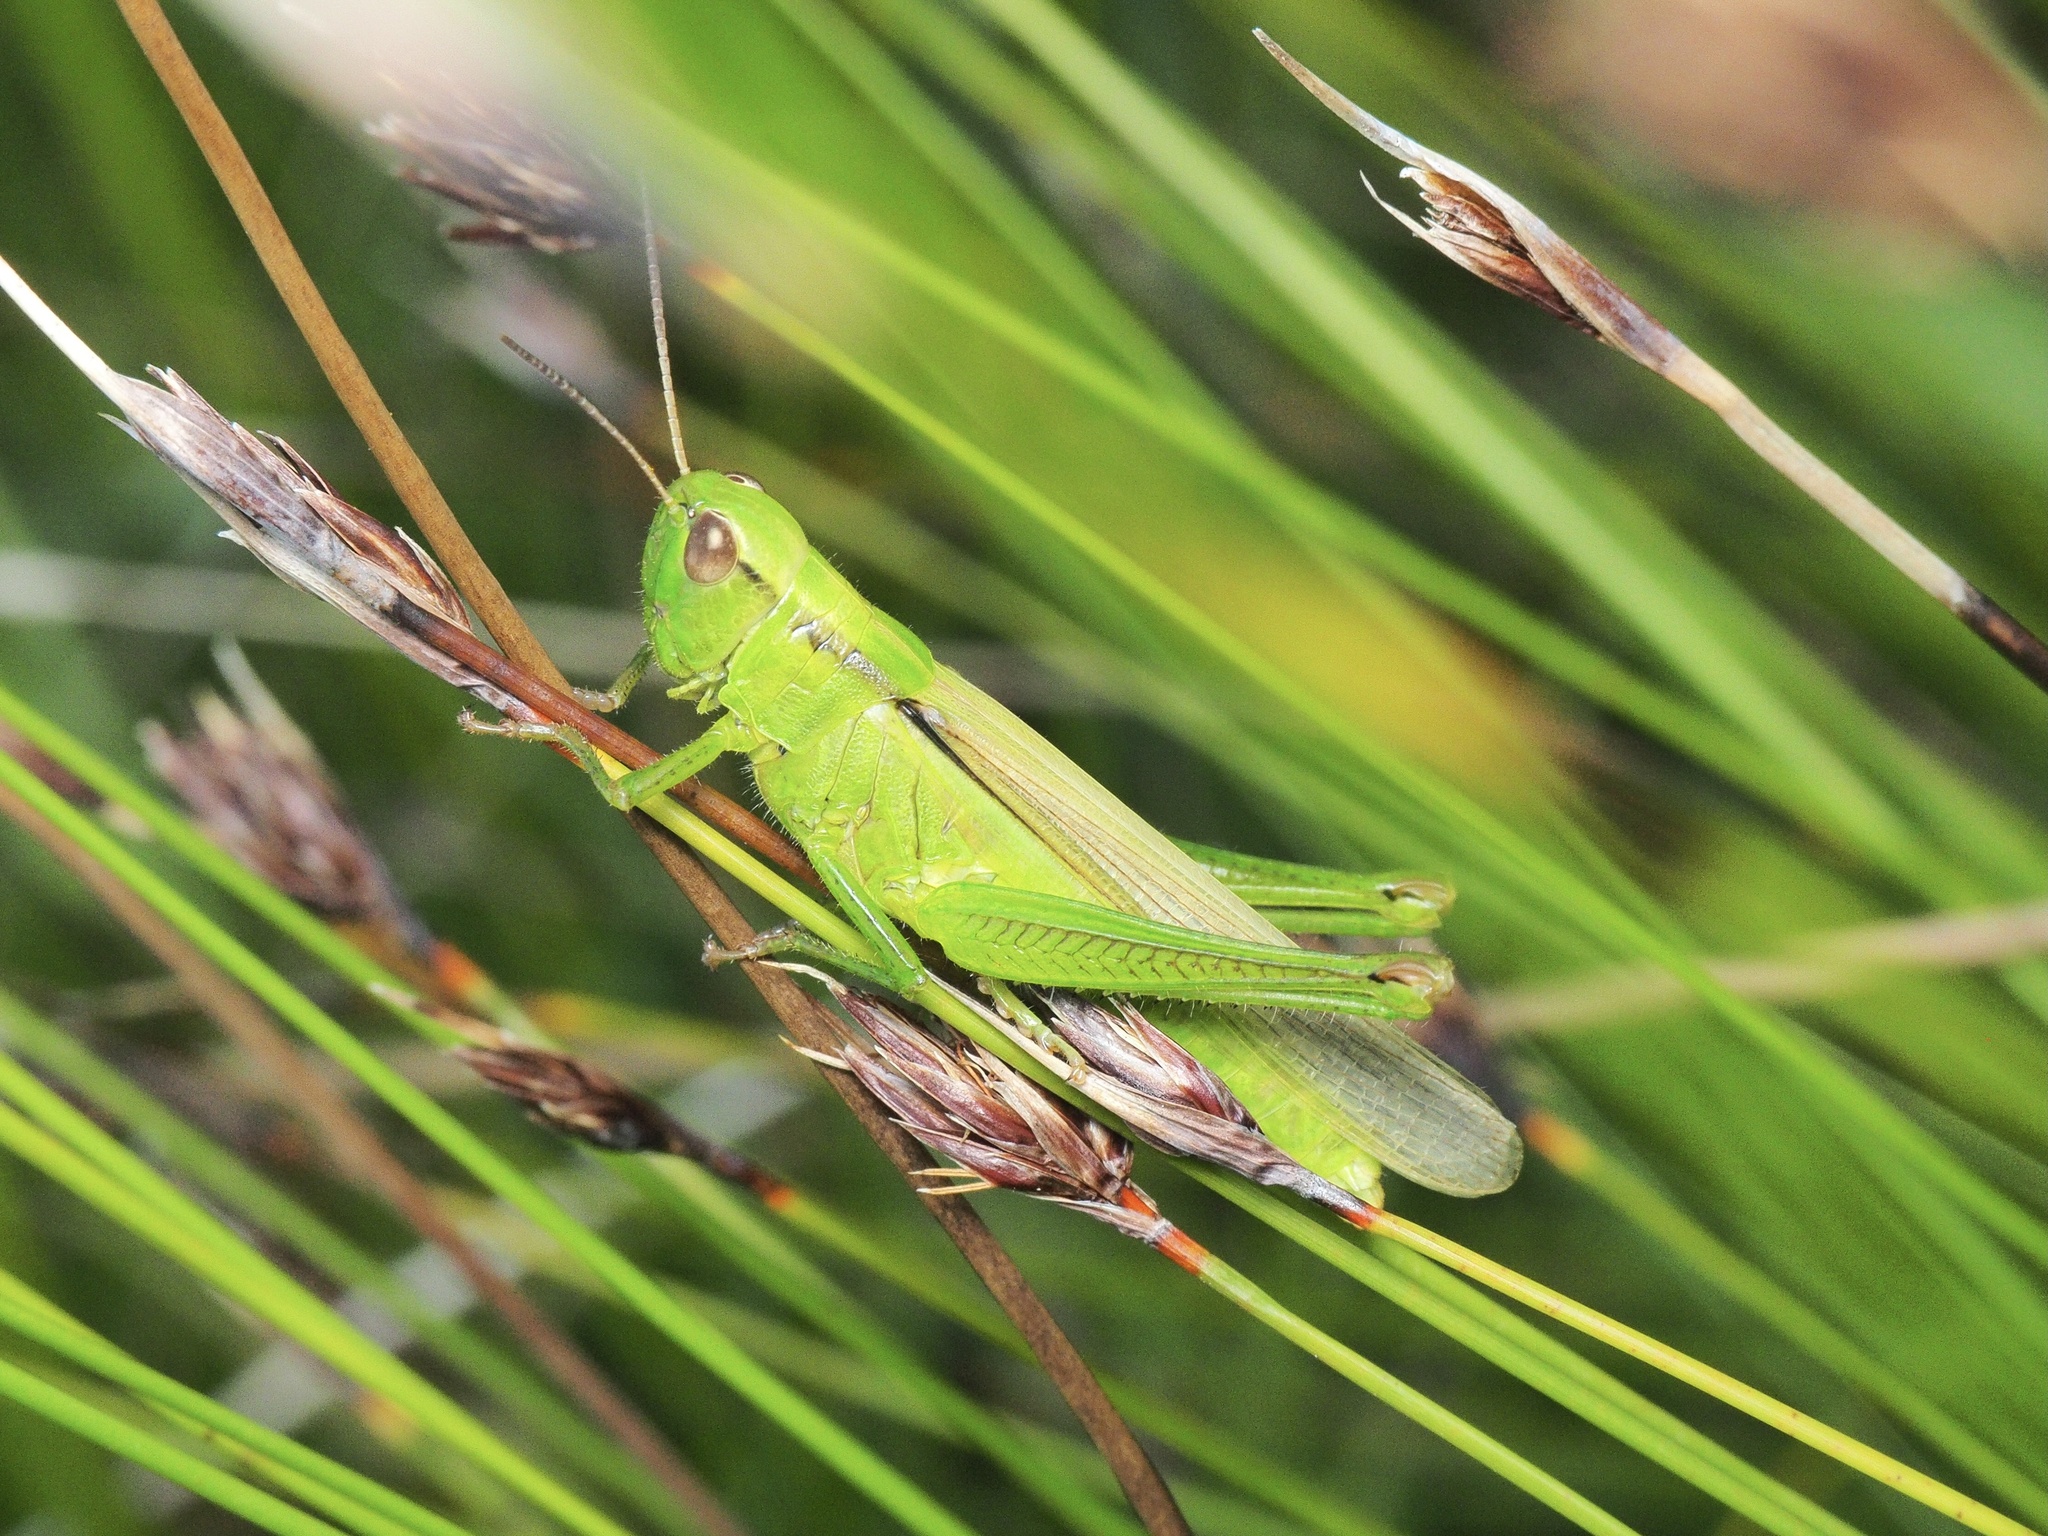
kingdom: Animalia
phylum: Arthropoda
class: Insecta
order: Orthoptera
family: Acrididae
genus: Mecostethus
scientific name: Mecostethus parapleurus
